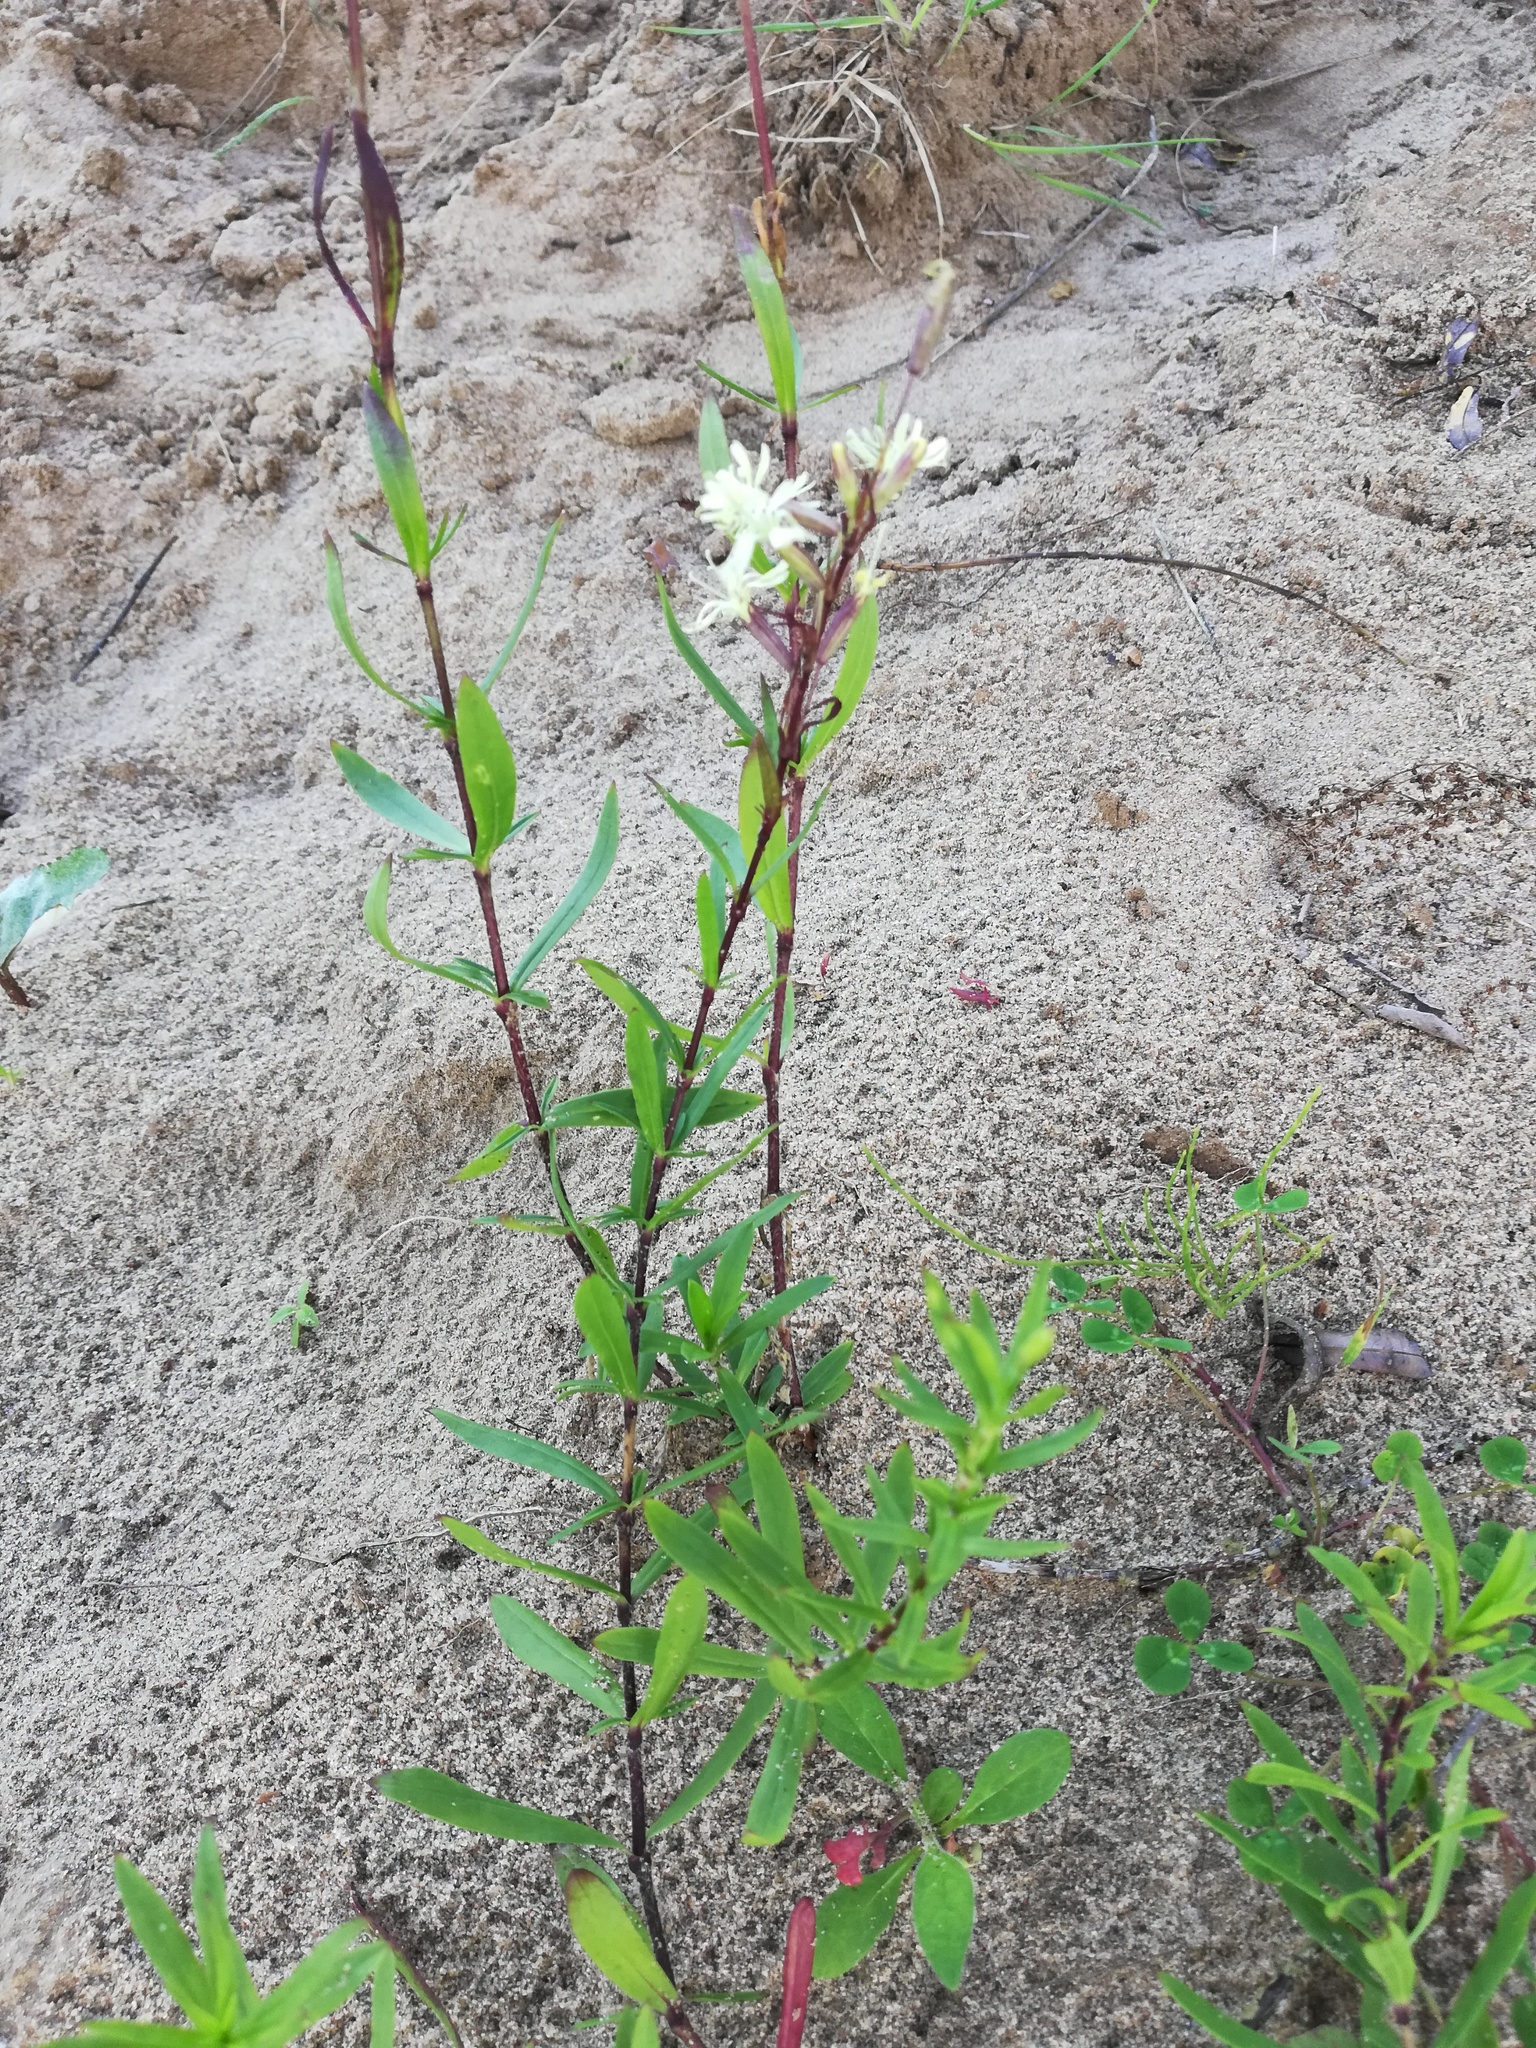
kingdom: Plantae
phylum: Tracheophyta
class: Magnoliopsida
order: Caryophyllales
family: Caryophyllaceae
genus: Silene
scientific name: Silene tatarica
